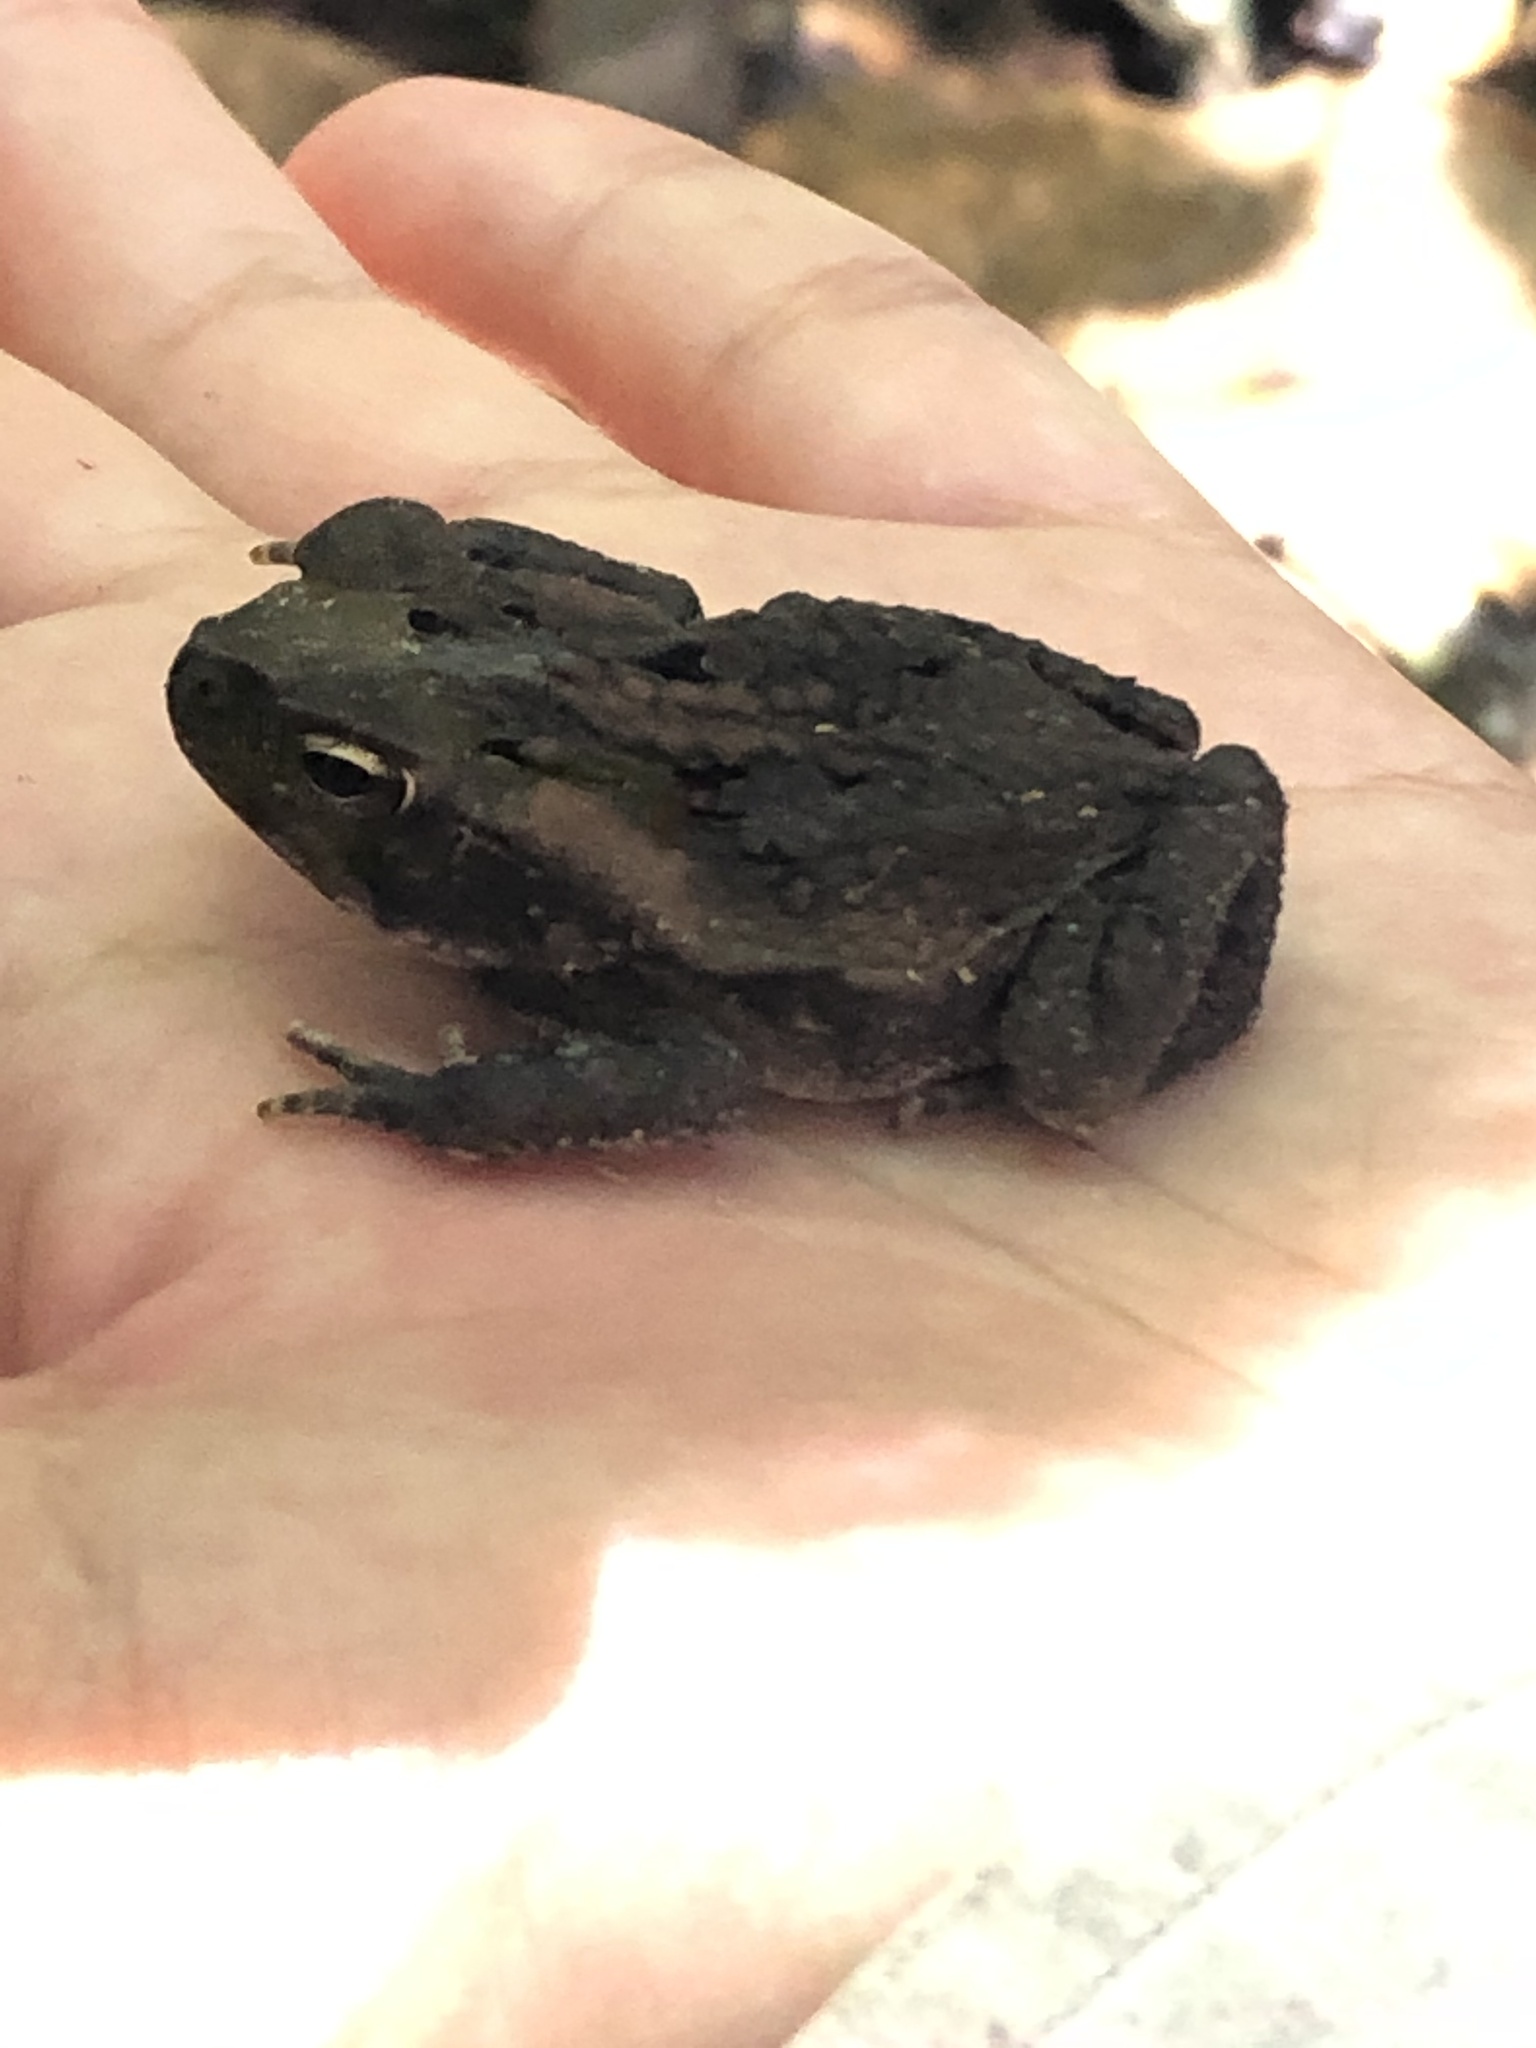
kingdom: Animalia
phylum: Chordata
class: Amphibia
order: Anura
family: Bufonidae
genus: Rhinella
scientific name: Rhinella marina
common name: Cane toad
